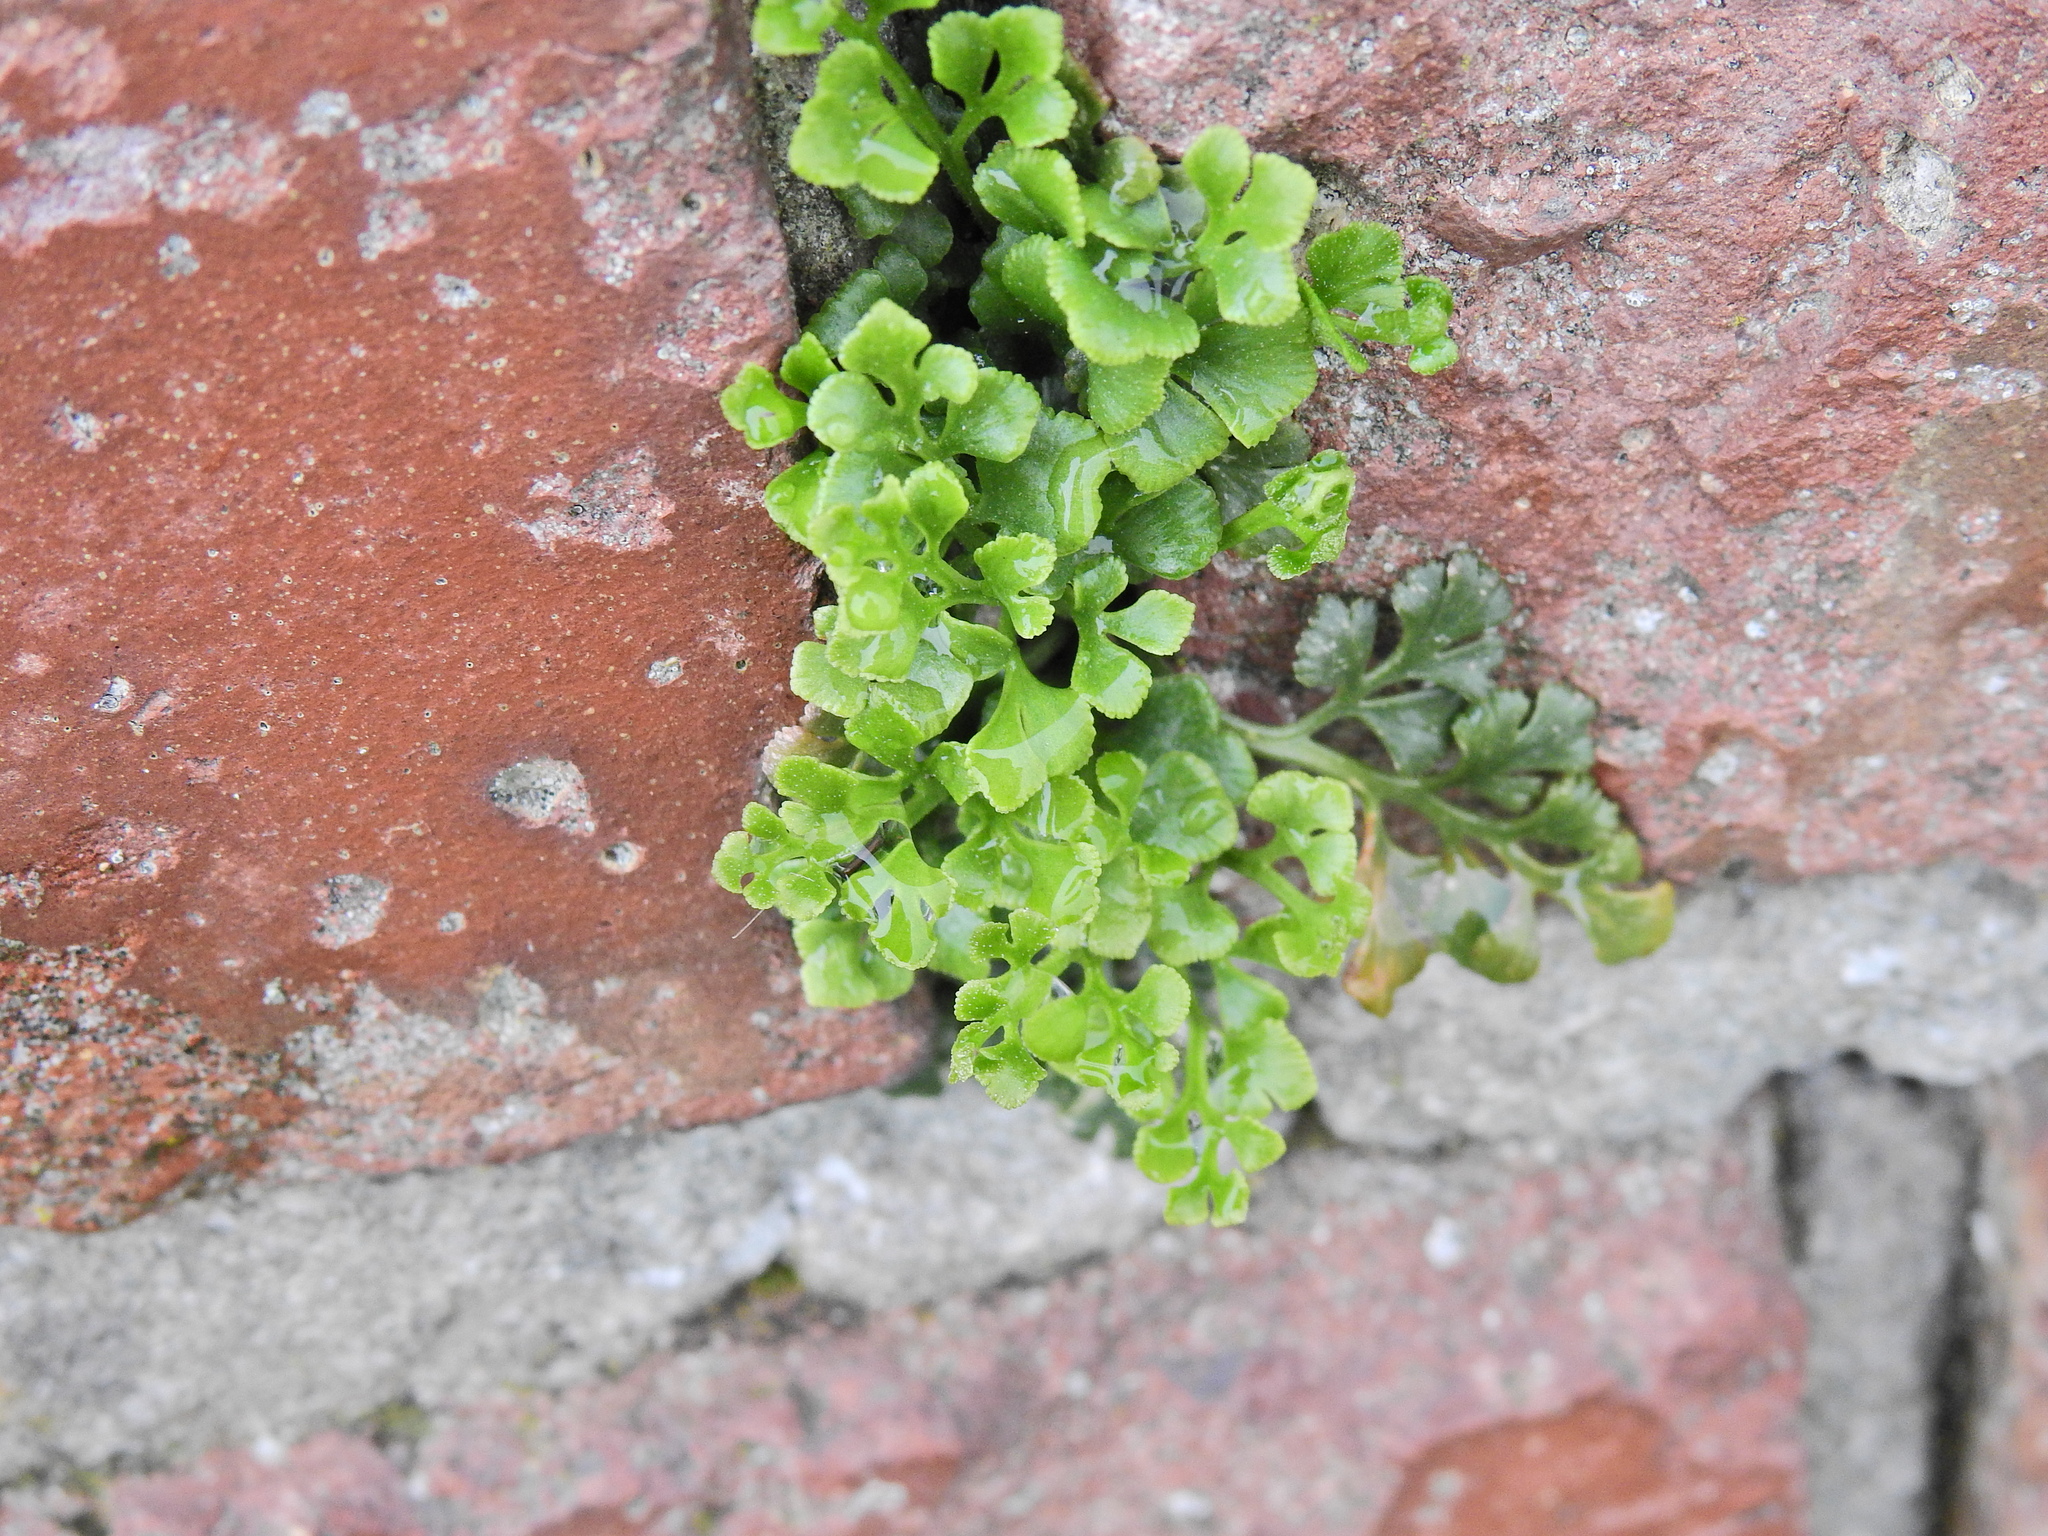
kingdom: Plantae
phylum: Tracheophyta
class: Polypodiopsida
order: Polypodiales
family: Aspleniaceae
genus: Asplenium
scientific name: Asplenium ruta-muraria
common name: Wall-rue
